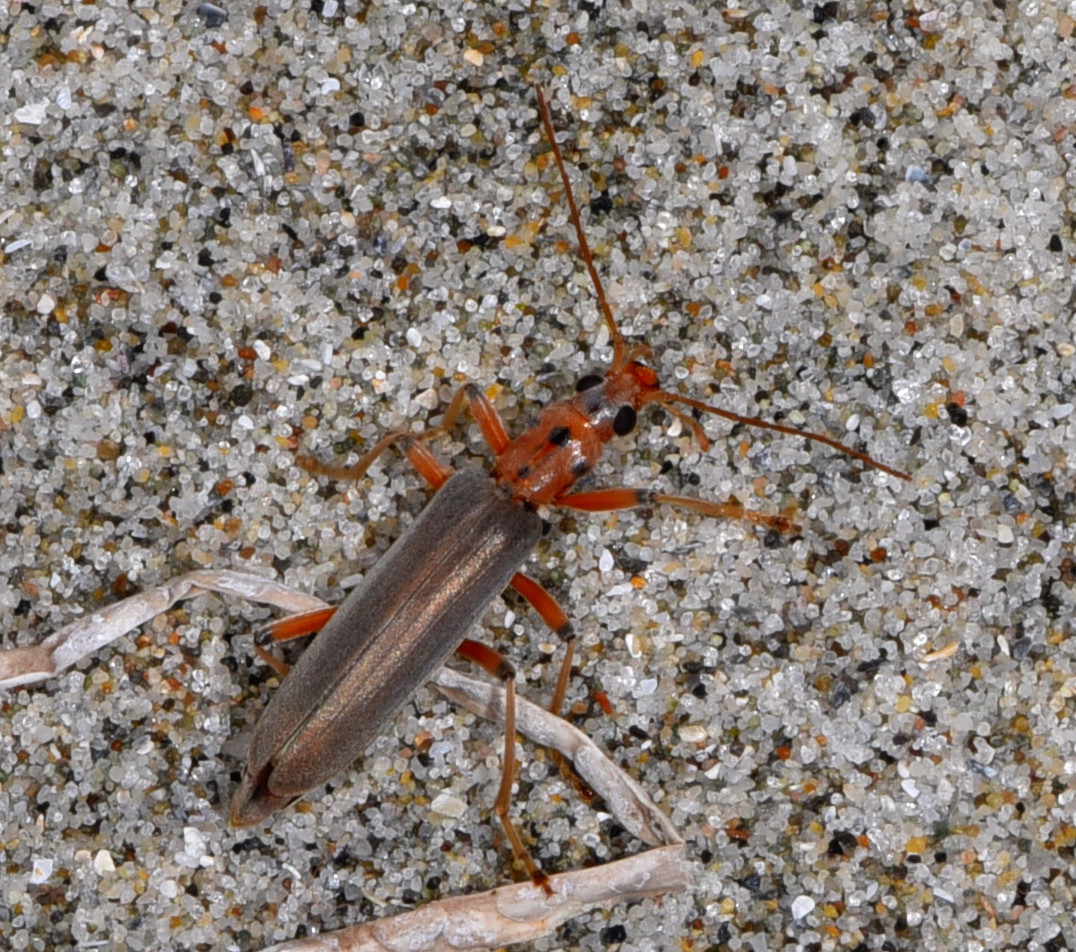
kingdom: Animalia
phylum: Arthropoda
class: Insecta
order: Coleoptera
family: Oedemeridae
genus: Copidita
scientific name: Copidita quadrimaculata
